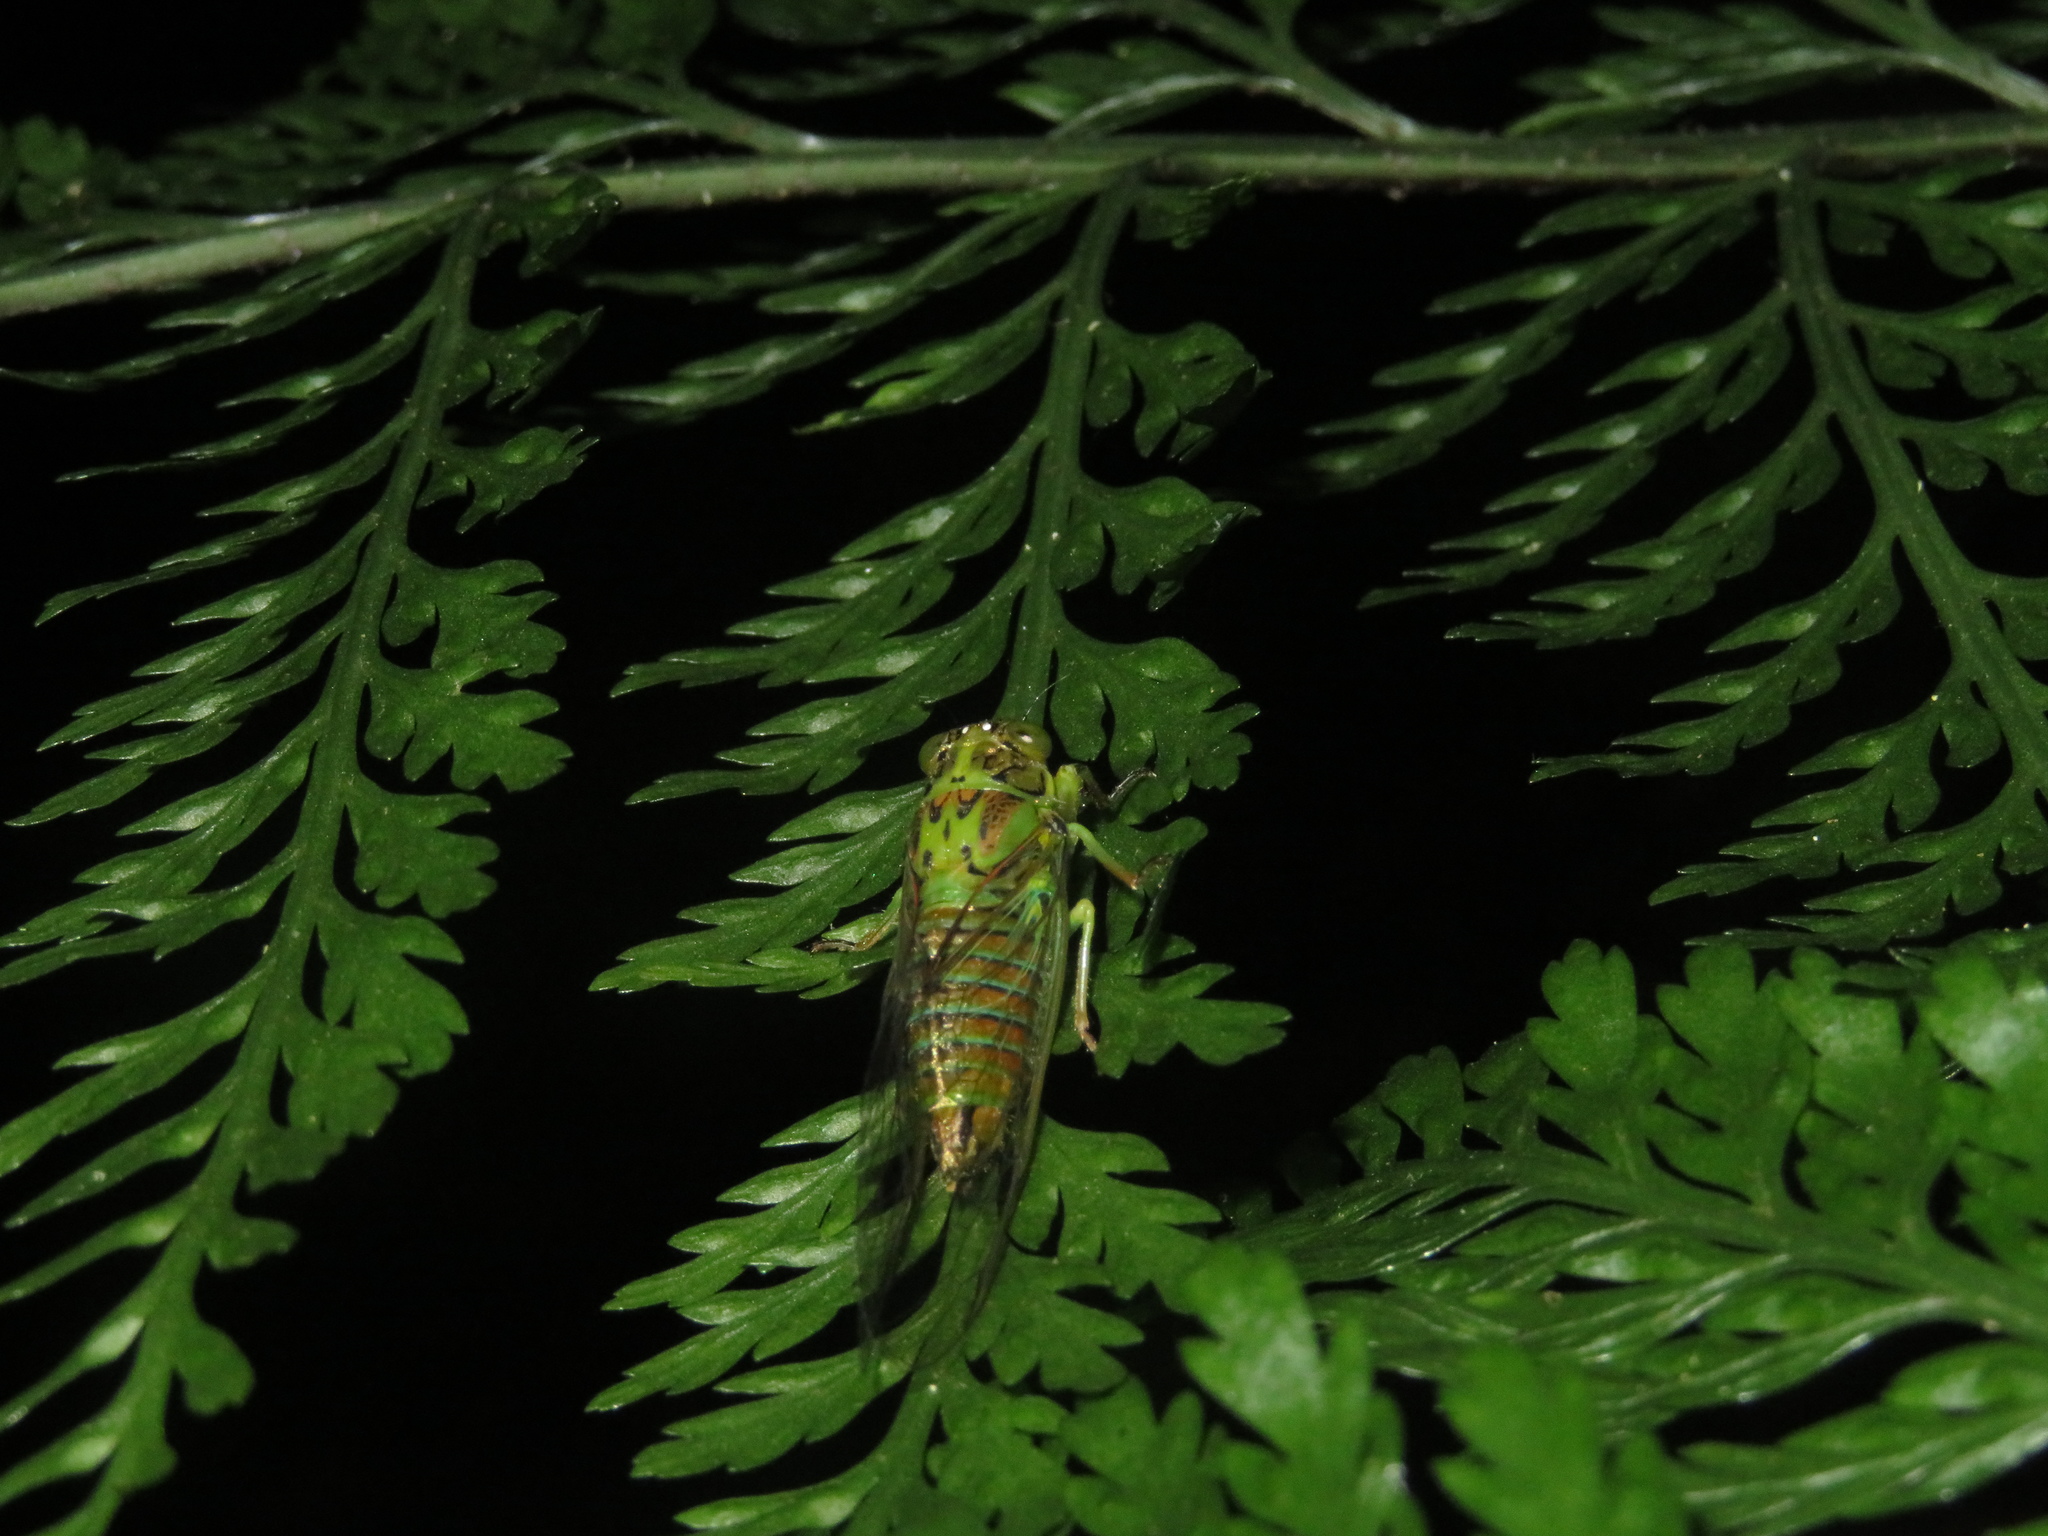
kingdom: Animalia
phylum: Arthropoda
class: Insecta
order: Hemiptera
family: Cicadidae
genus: Kikihia
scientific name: Kikihia scutellaris
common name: Lesser bronze cicada
